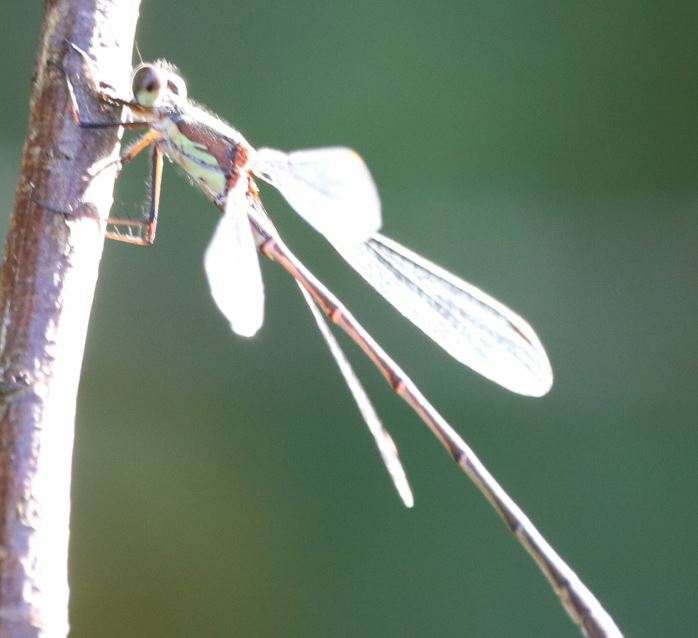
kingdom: Animalia
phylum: Arthropoda
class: Insecta
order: Odonata
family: Lestidae
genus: Chalcolestes
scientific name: Chalcolestes viridis
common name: Green emerald damselfly
